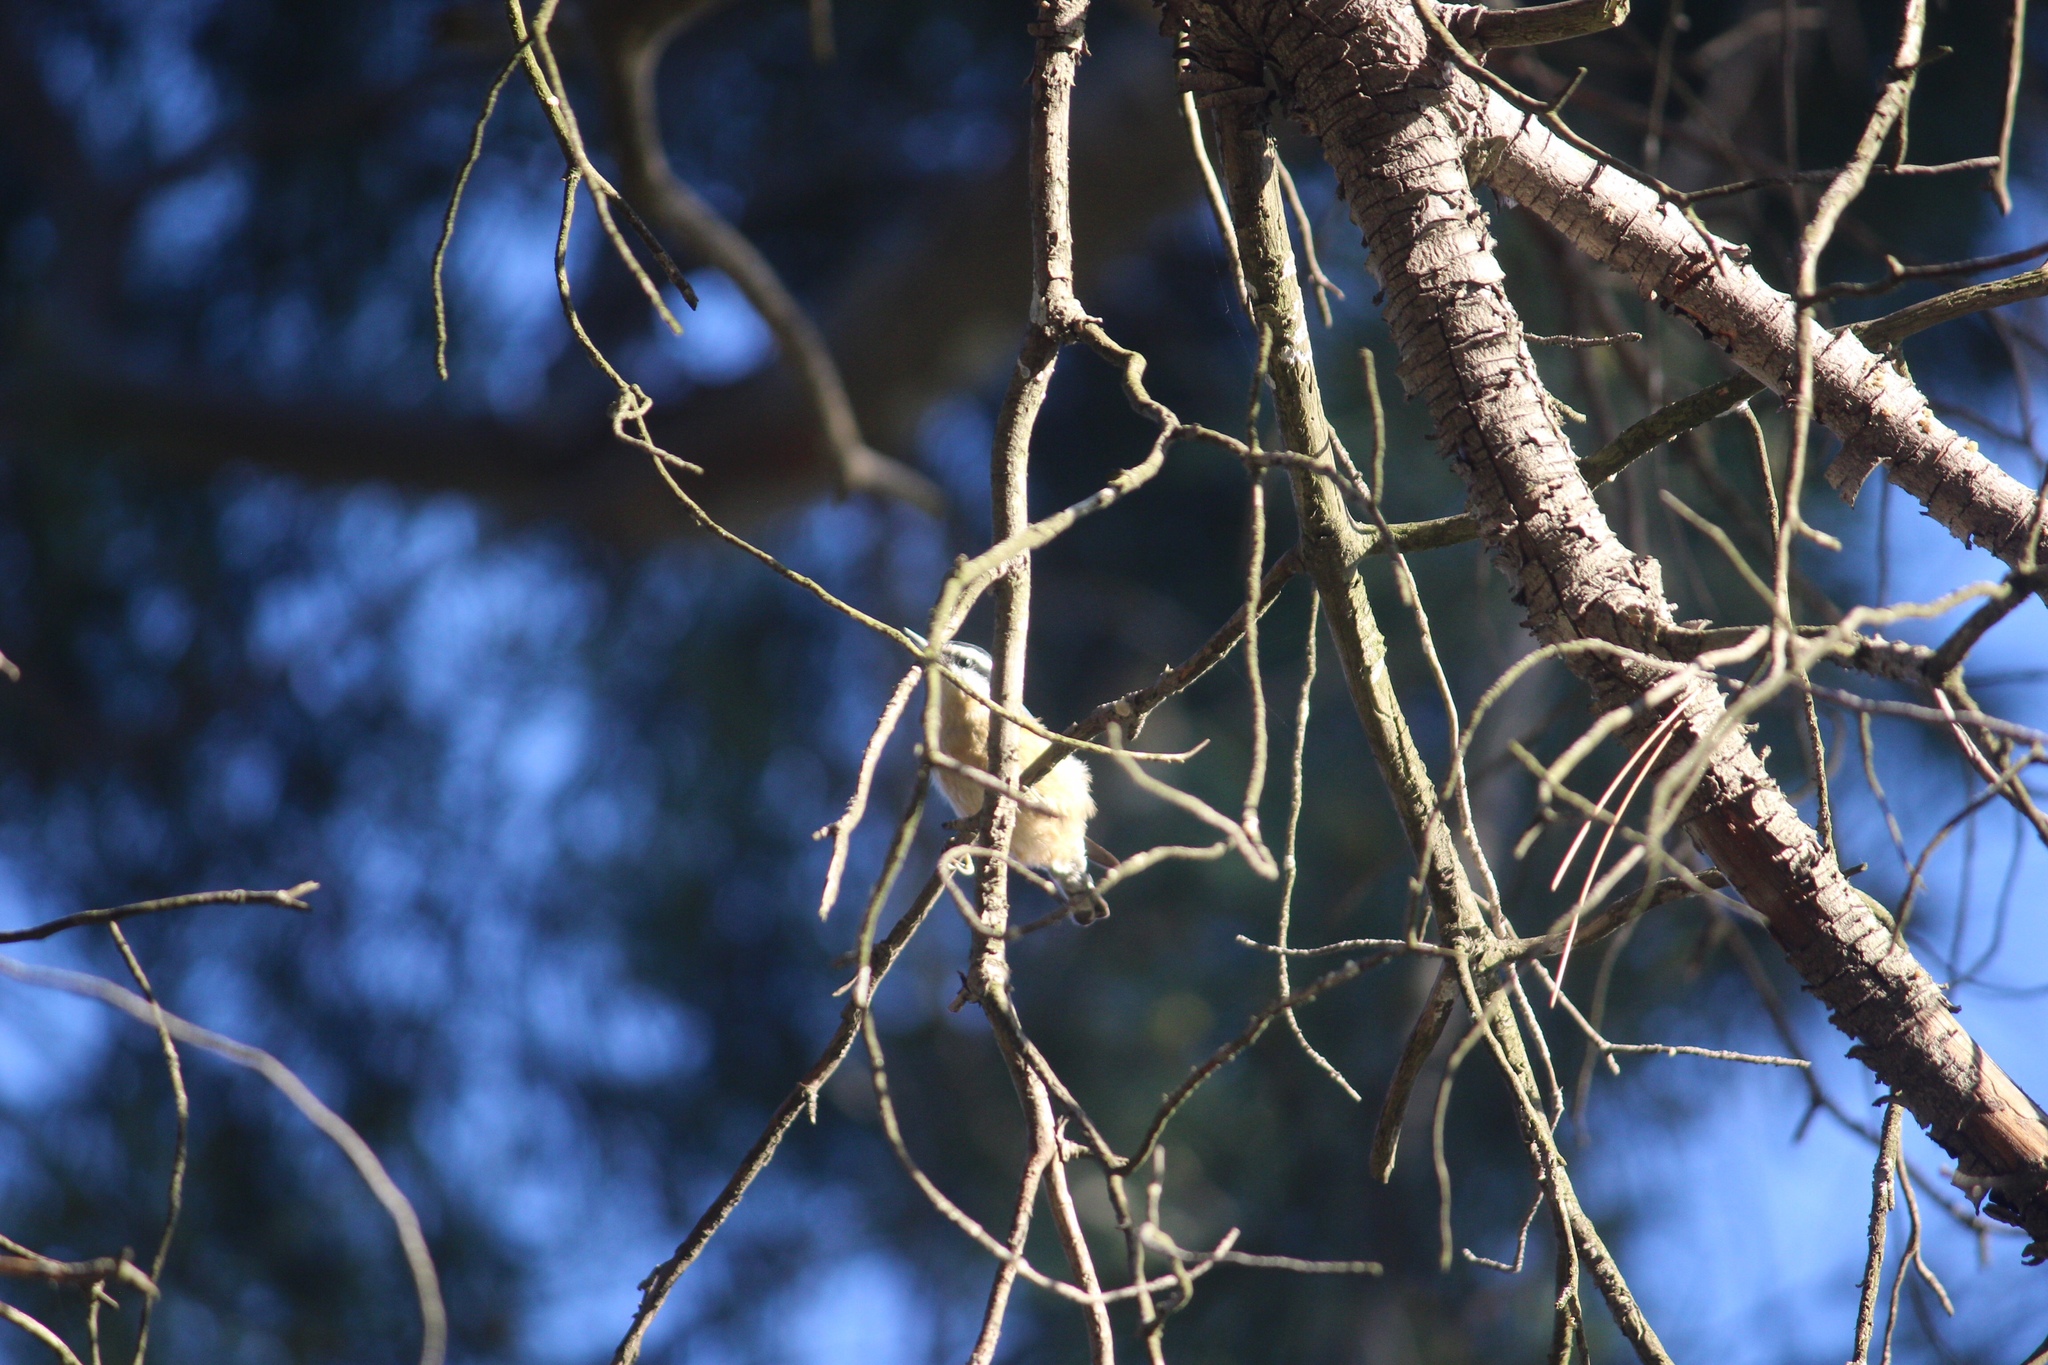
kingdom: Animalia
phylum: Chordata
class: Aves
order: Passeriformes
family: Sittidae
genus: Sitta
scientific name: Sitta canadensis
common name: Red-breasted nuthatch
